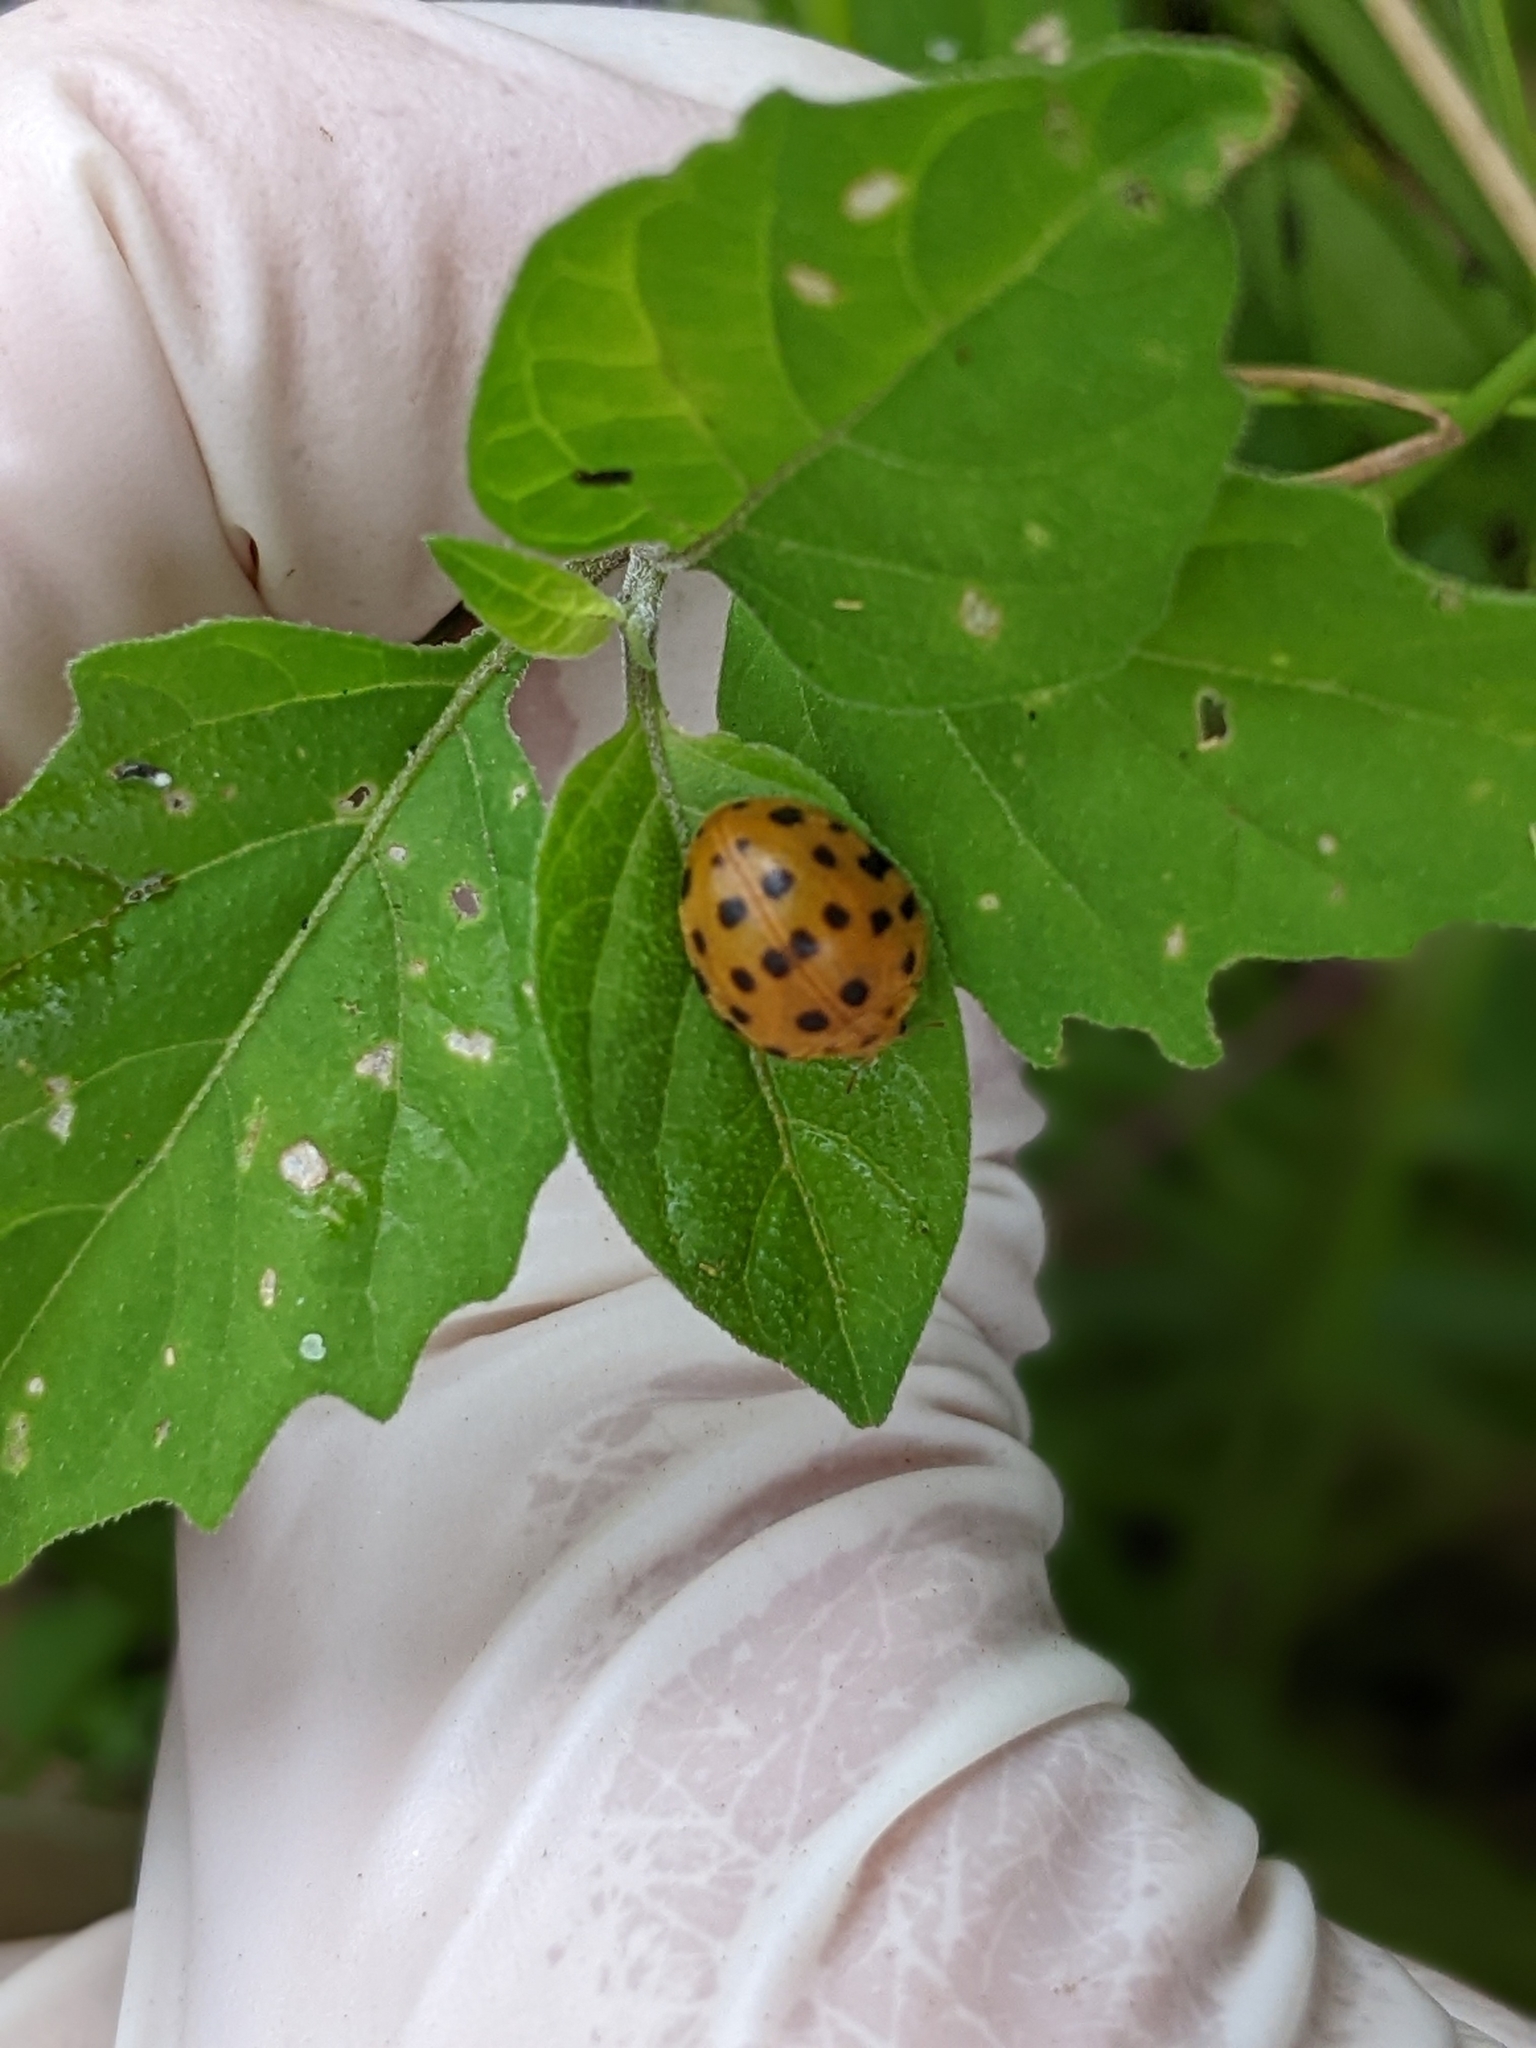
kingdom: Animalia
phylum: Arthropoda
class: Insecta
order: Coleoptera
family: Coccinellidae
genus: Henosepilachna
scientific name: Henosepilachna vigintioctopunctata
